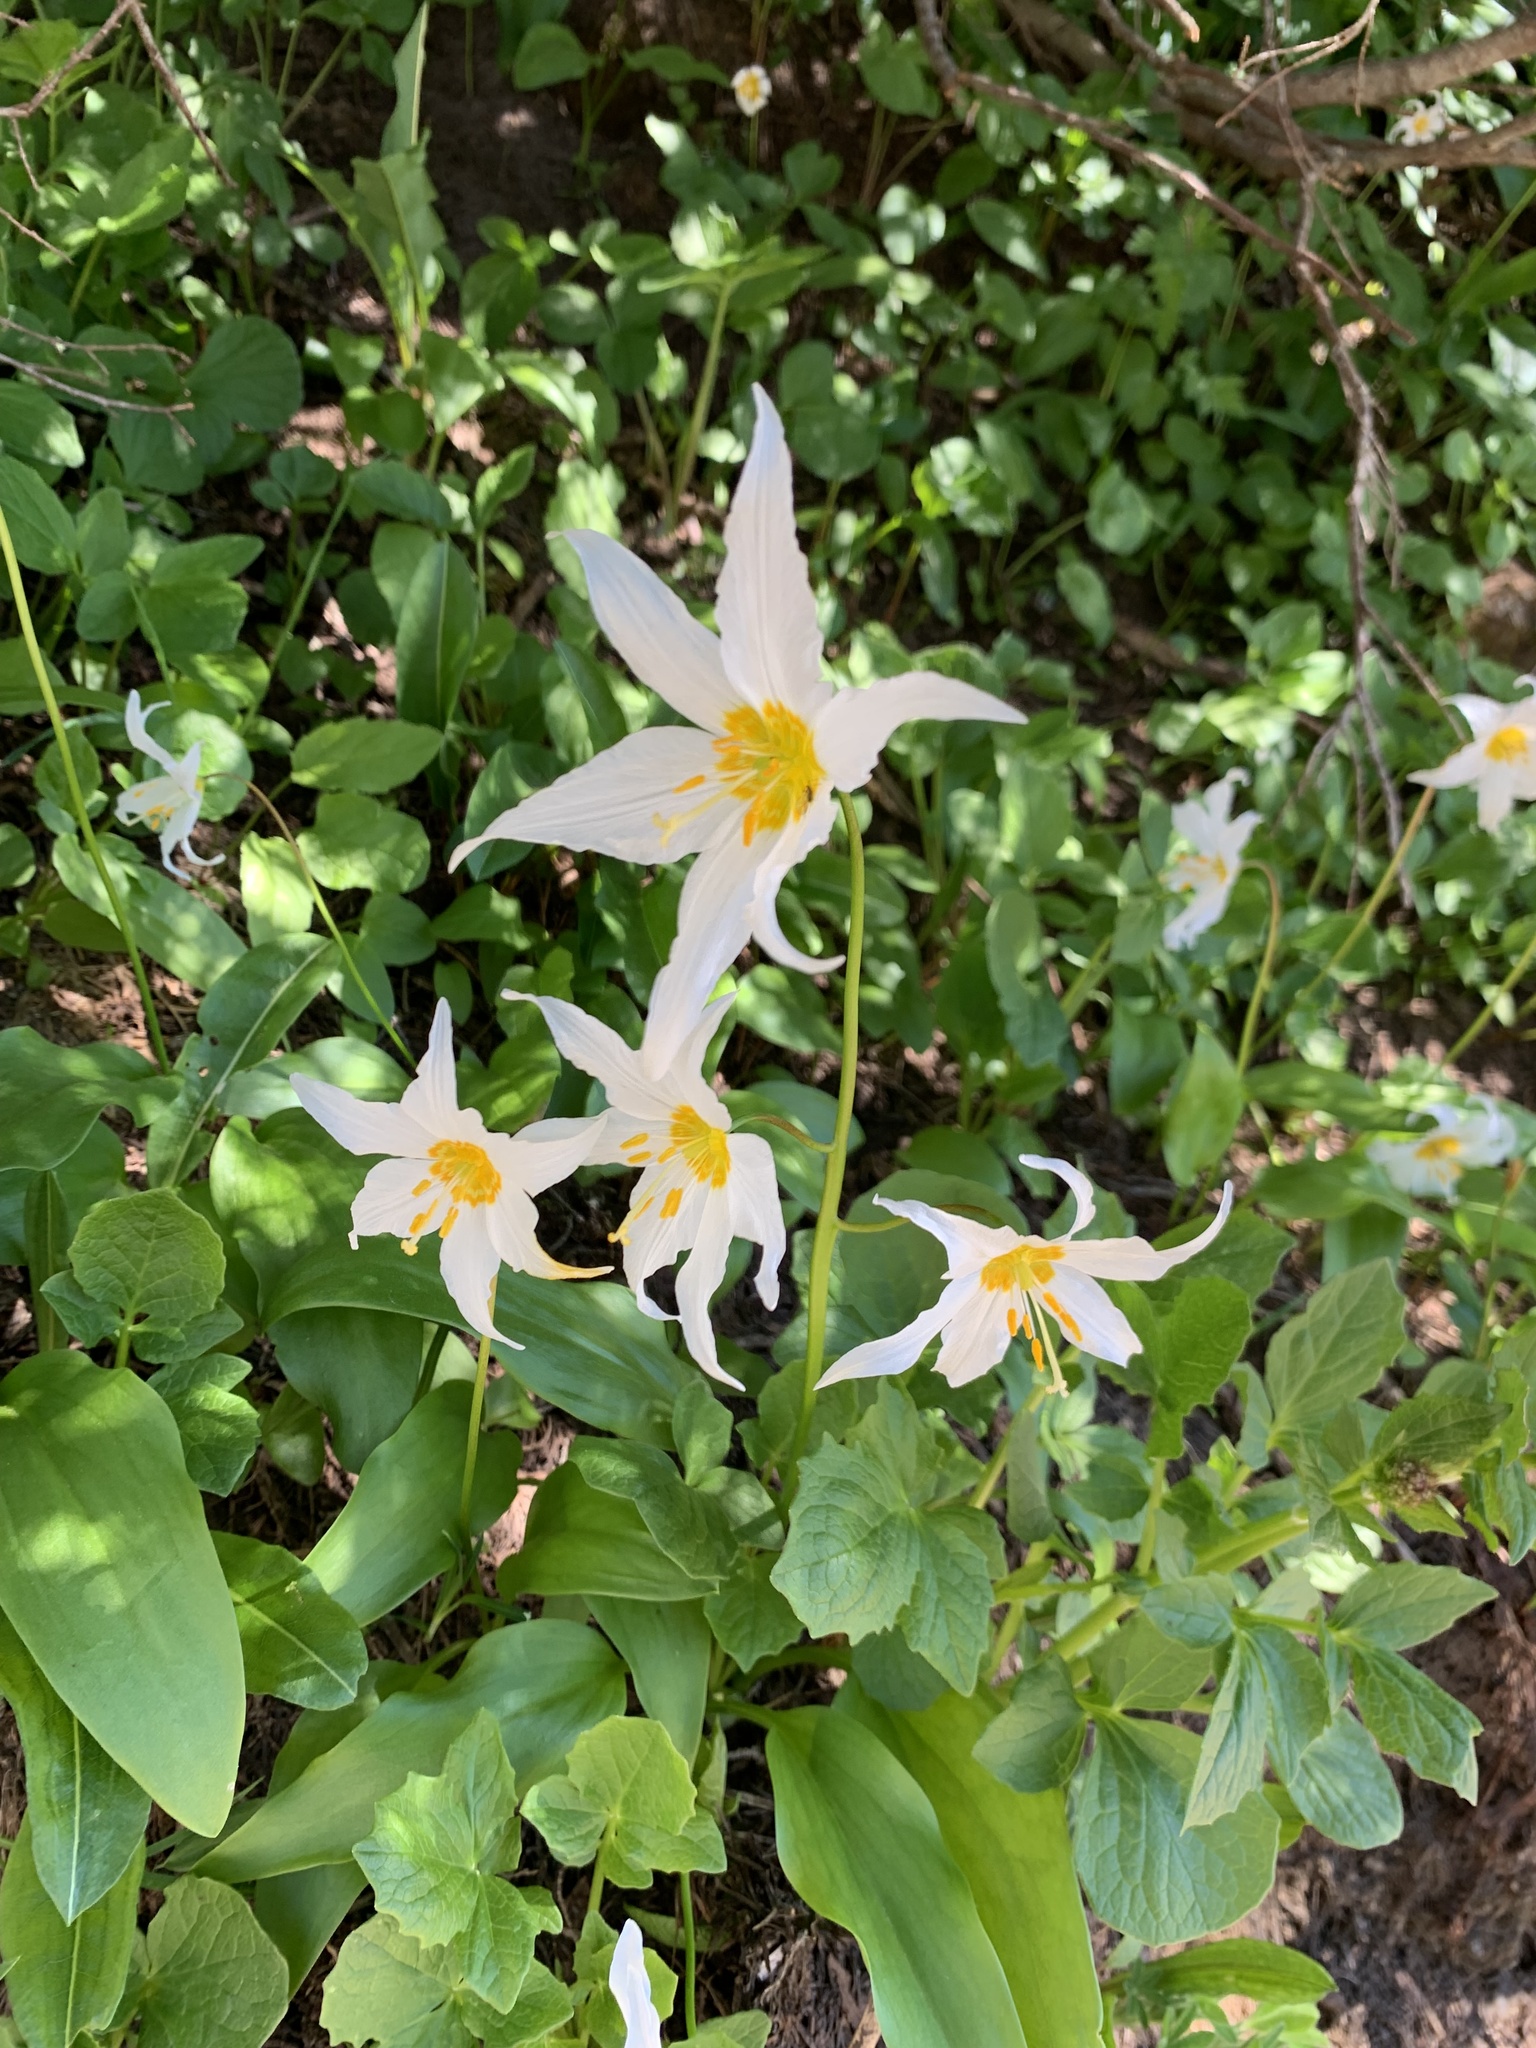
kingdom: Plantae
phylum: Tracheophyta
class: Liliopsida
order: Liliales
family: Liliaceae
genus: Erythronium
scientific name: Erythronium montanum
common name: Avalanche lily
